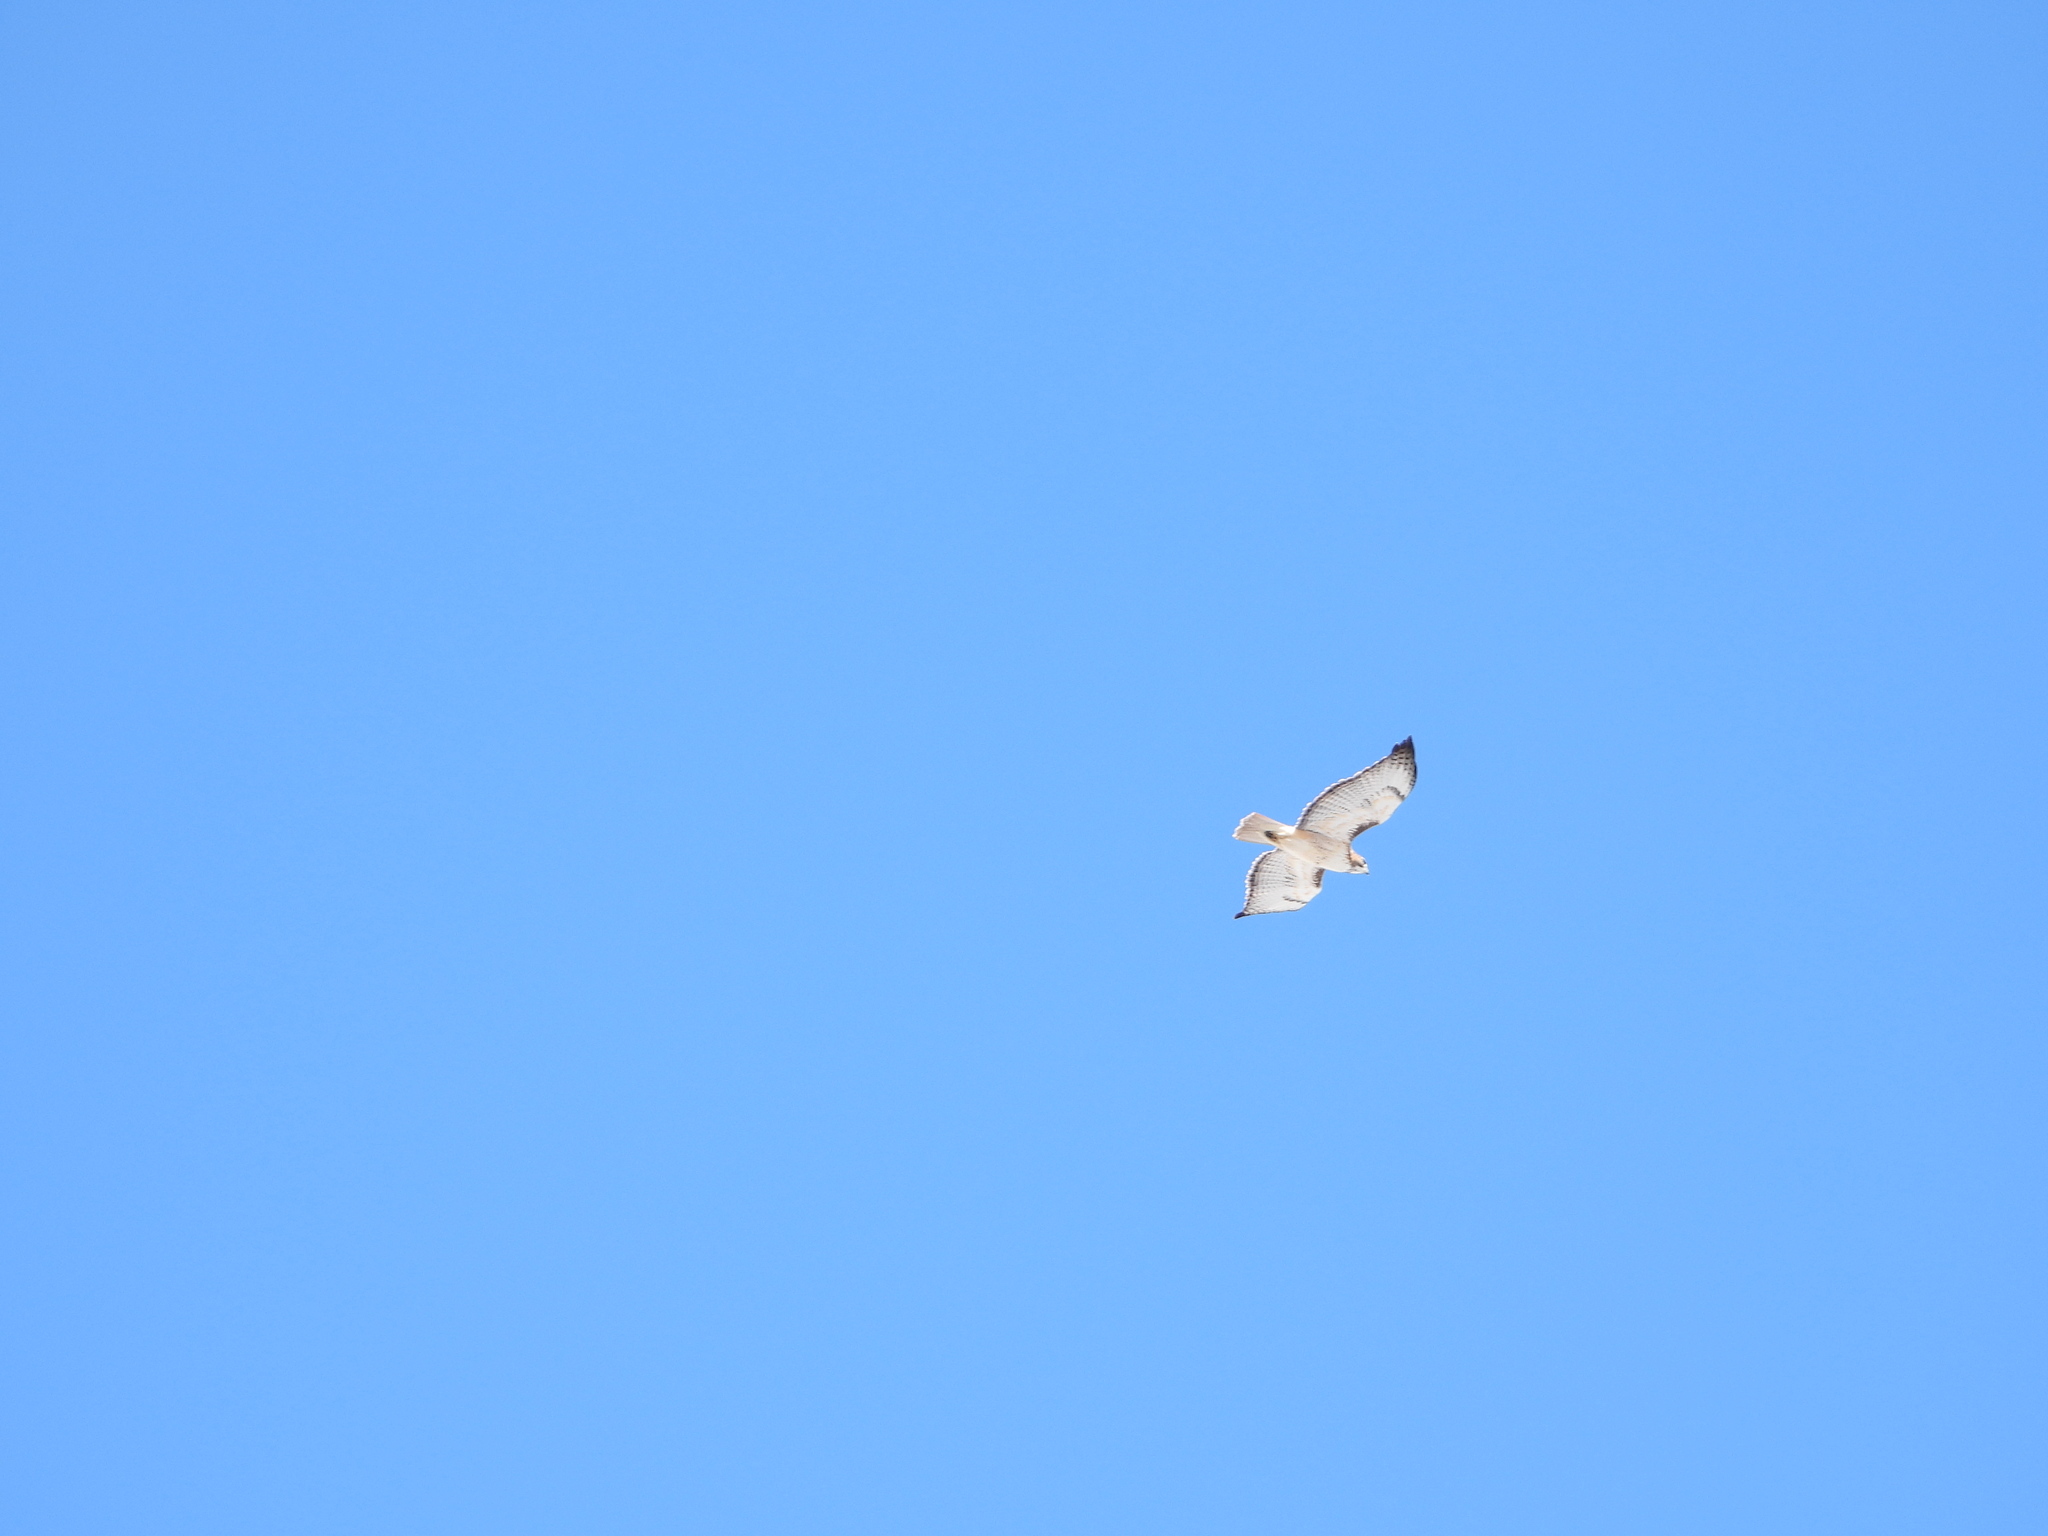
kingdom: Animalia
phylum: Chordata
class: Aves
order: Accipitriformes
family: Accipitridae
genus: Buteo
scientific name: Buteo jamaicensis
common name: Red-tailed hawk
